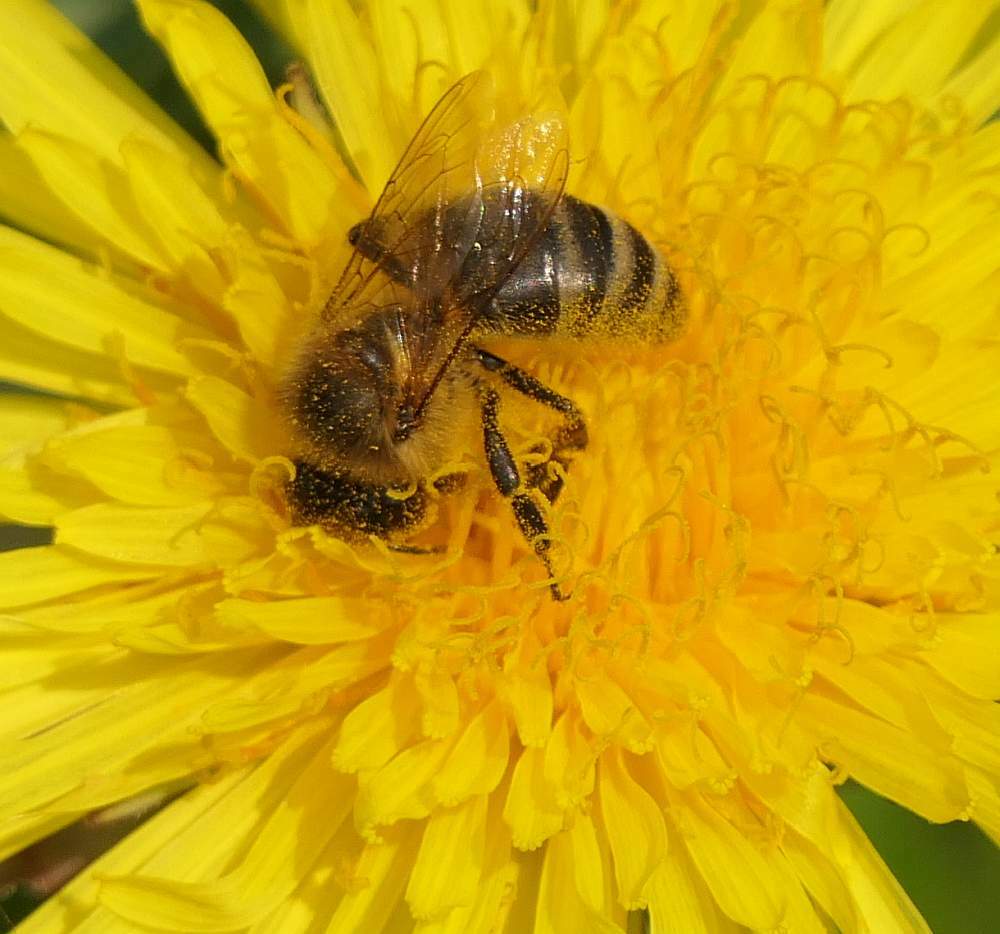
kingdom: Animalia
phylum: Arthropoda
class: Insecta
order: Hymenoptera
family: Apidae
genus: Apis
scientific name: Apis mellifera
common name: Honey bee
